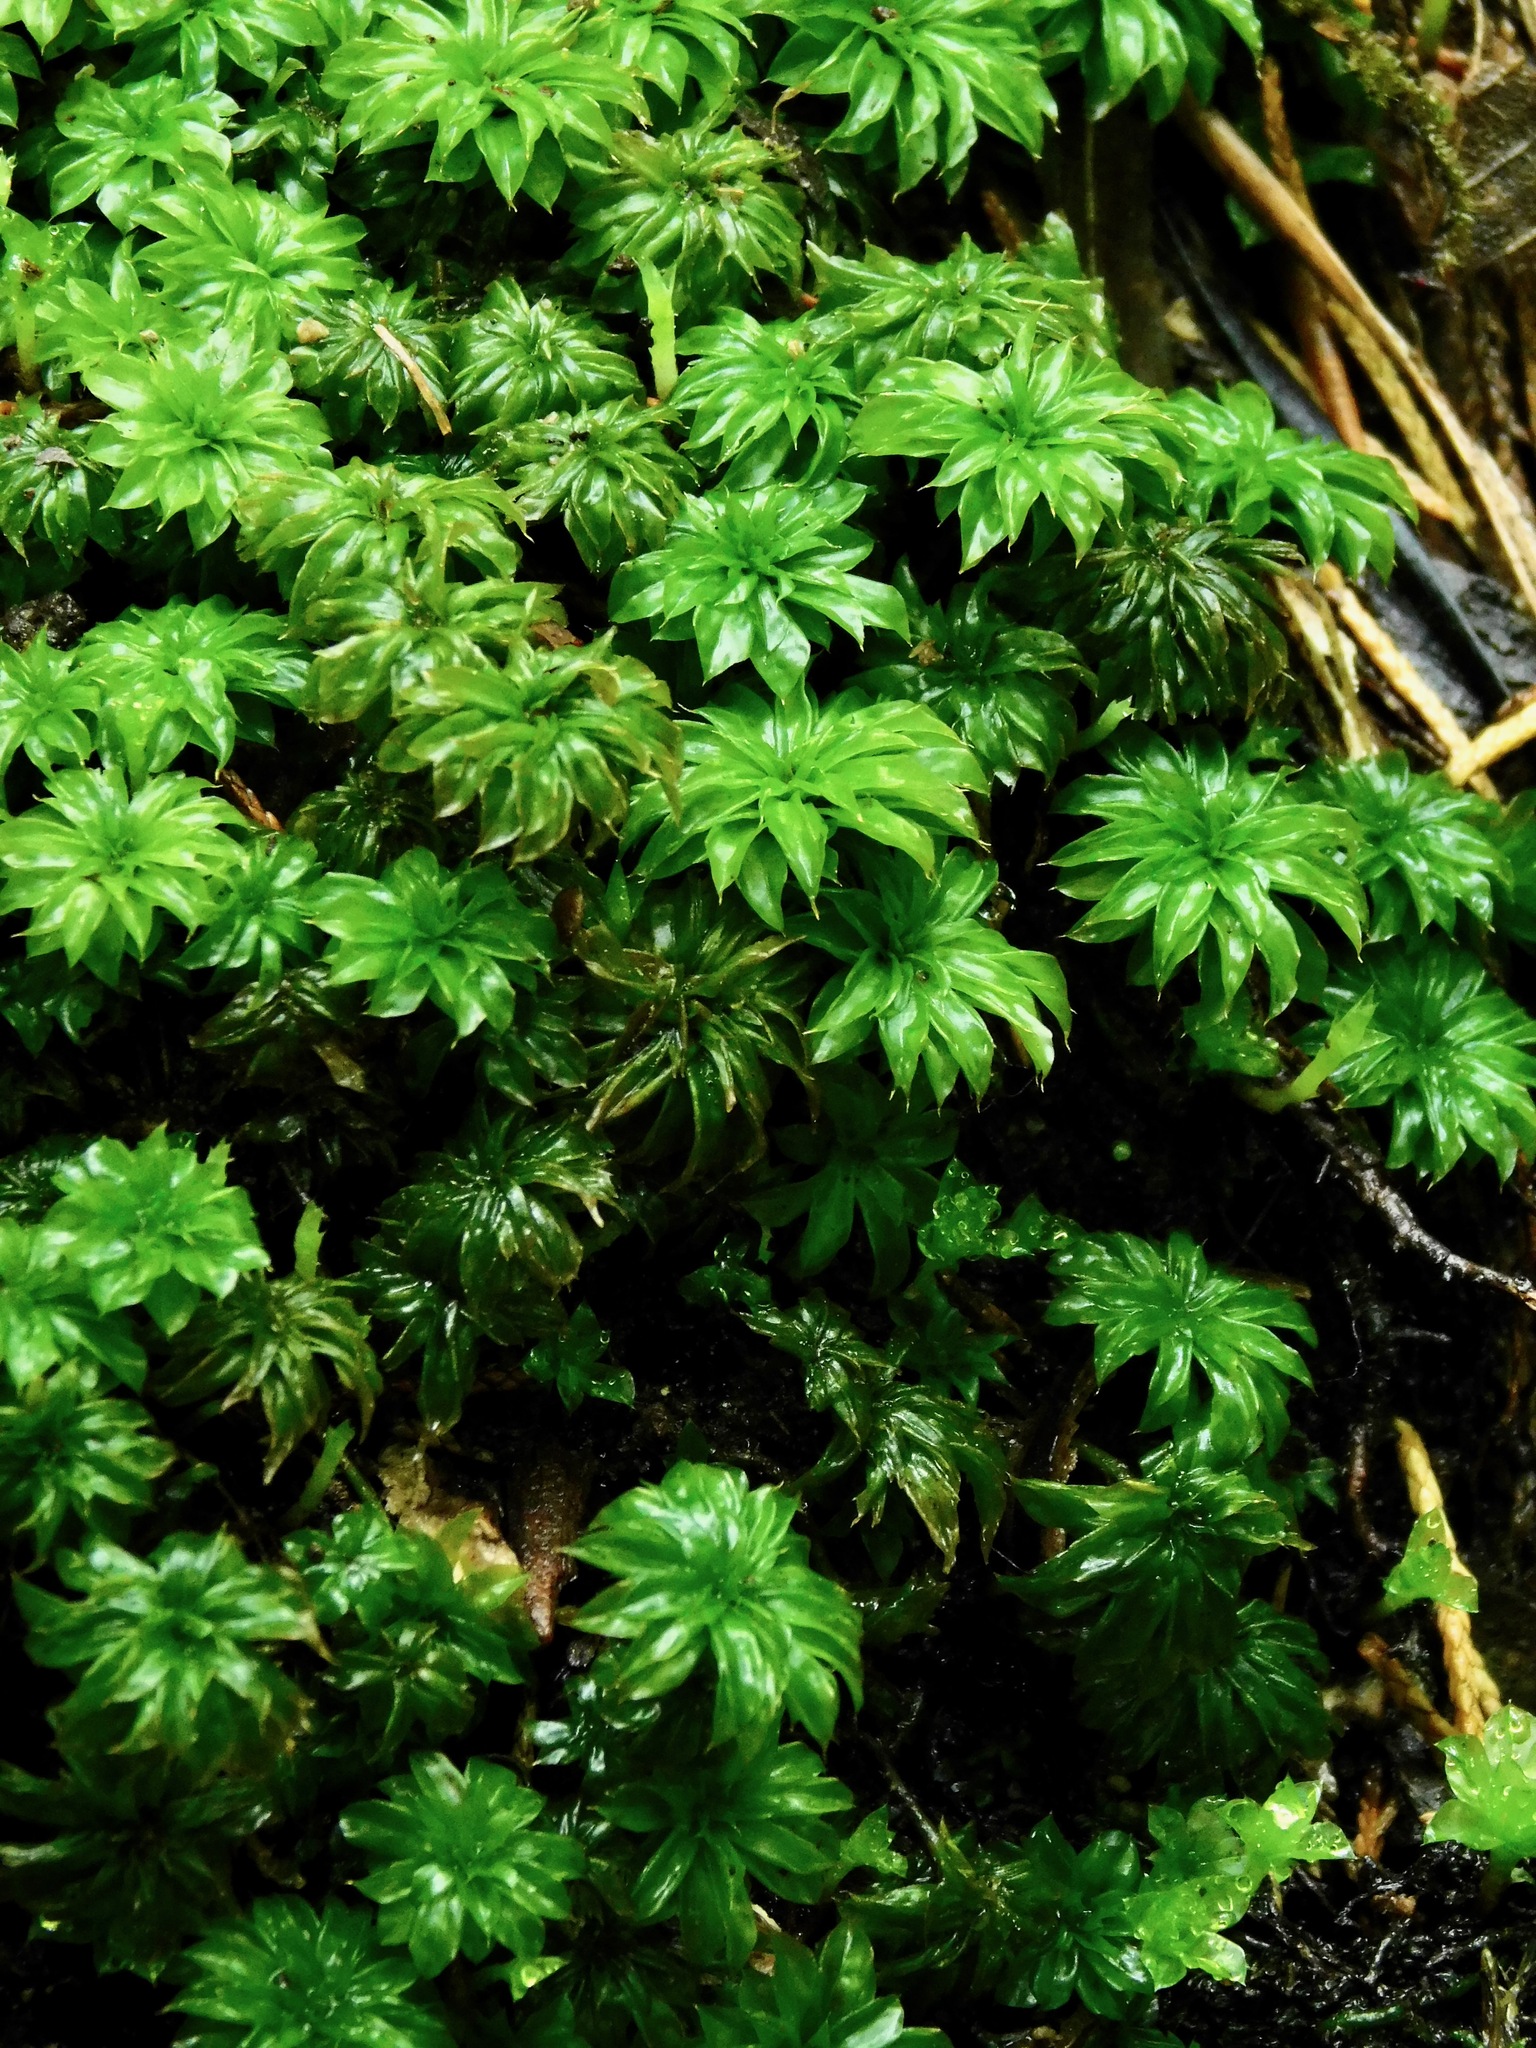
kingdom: Plantae
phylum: Bryophyta
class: Bryopsida
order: Bryales
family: Bryaceae
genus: Rhodobryum
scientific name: Rhodobryum ontariense
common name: Ontario rhodobryum moss
